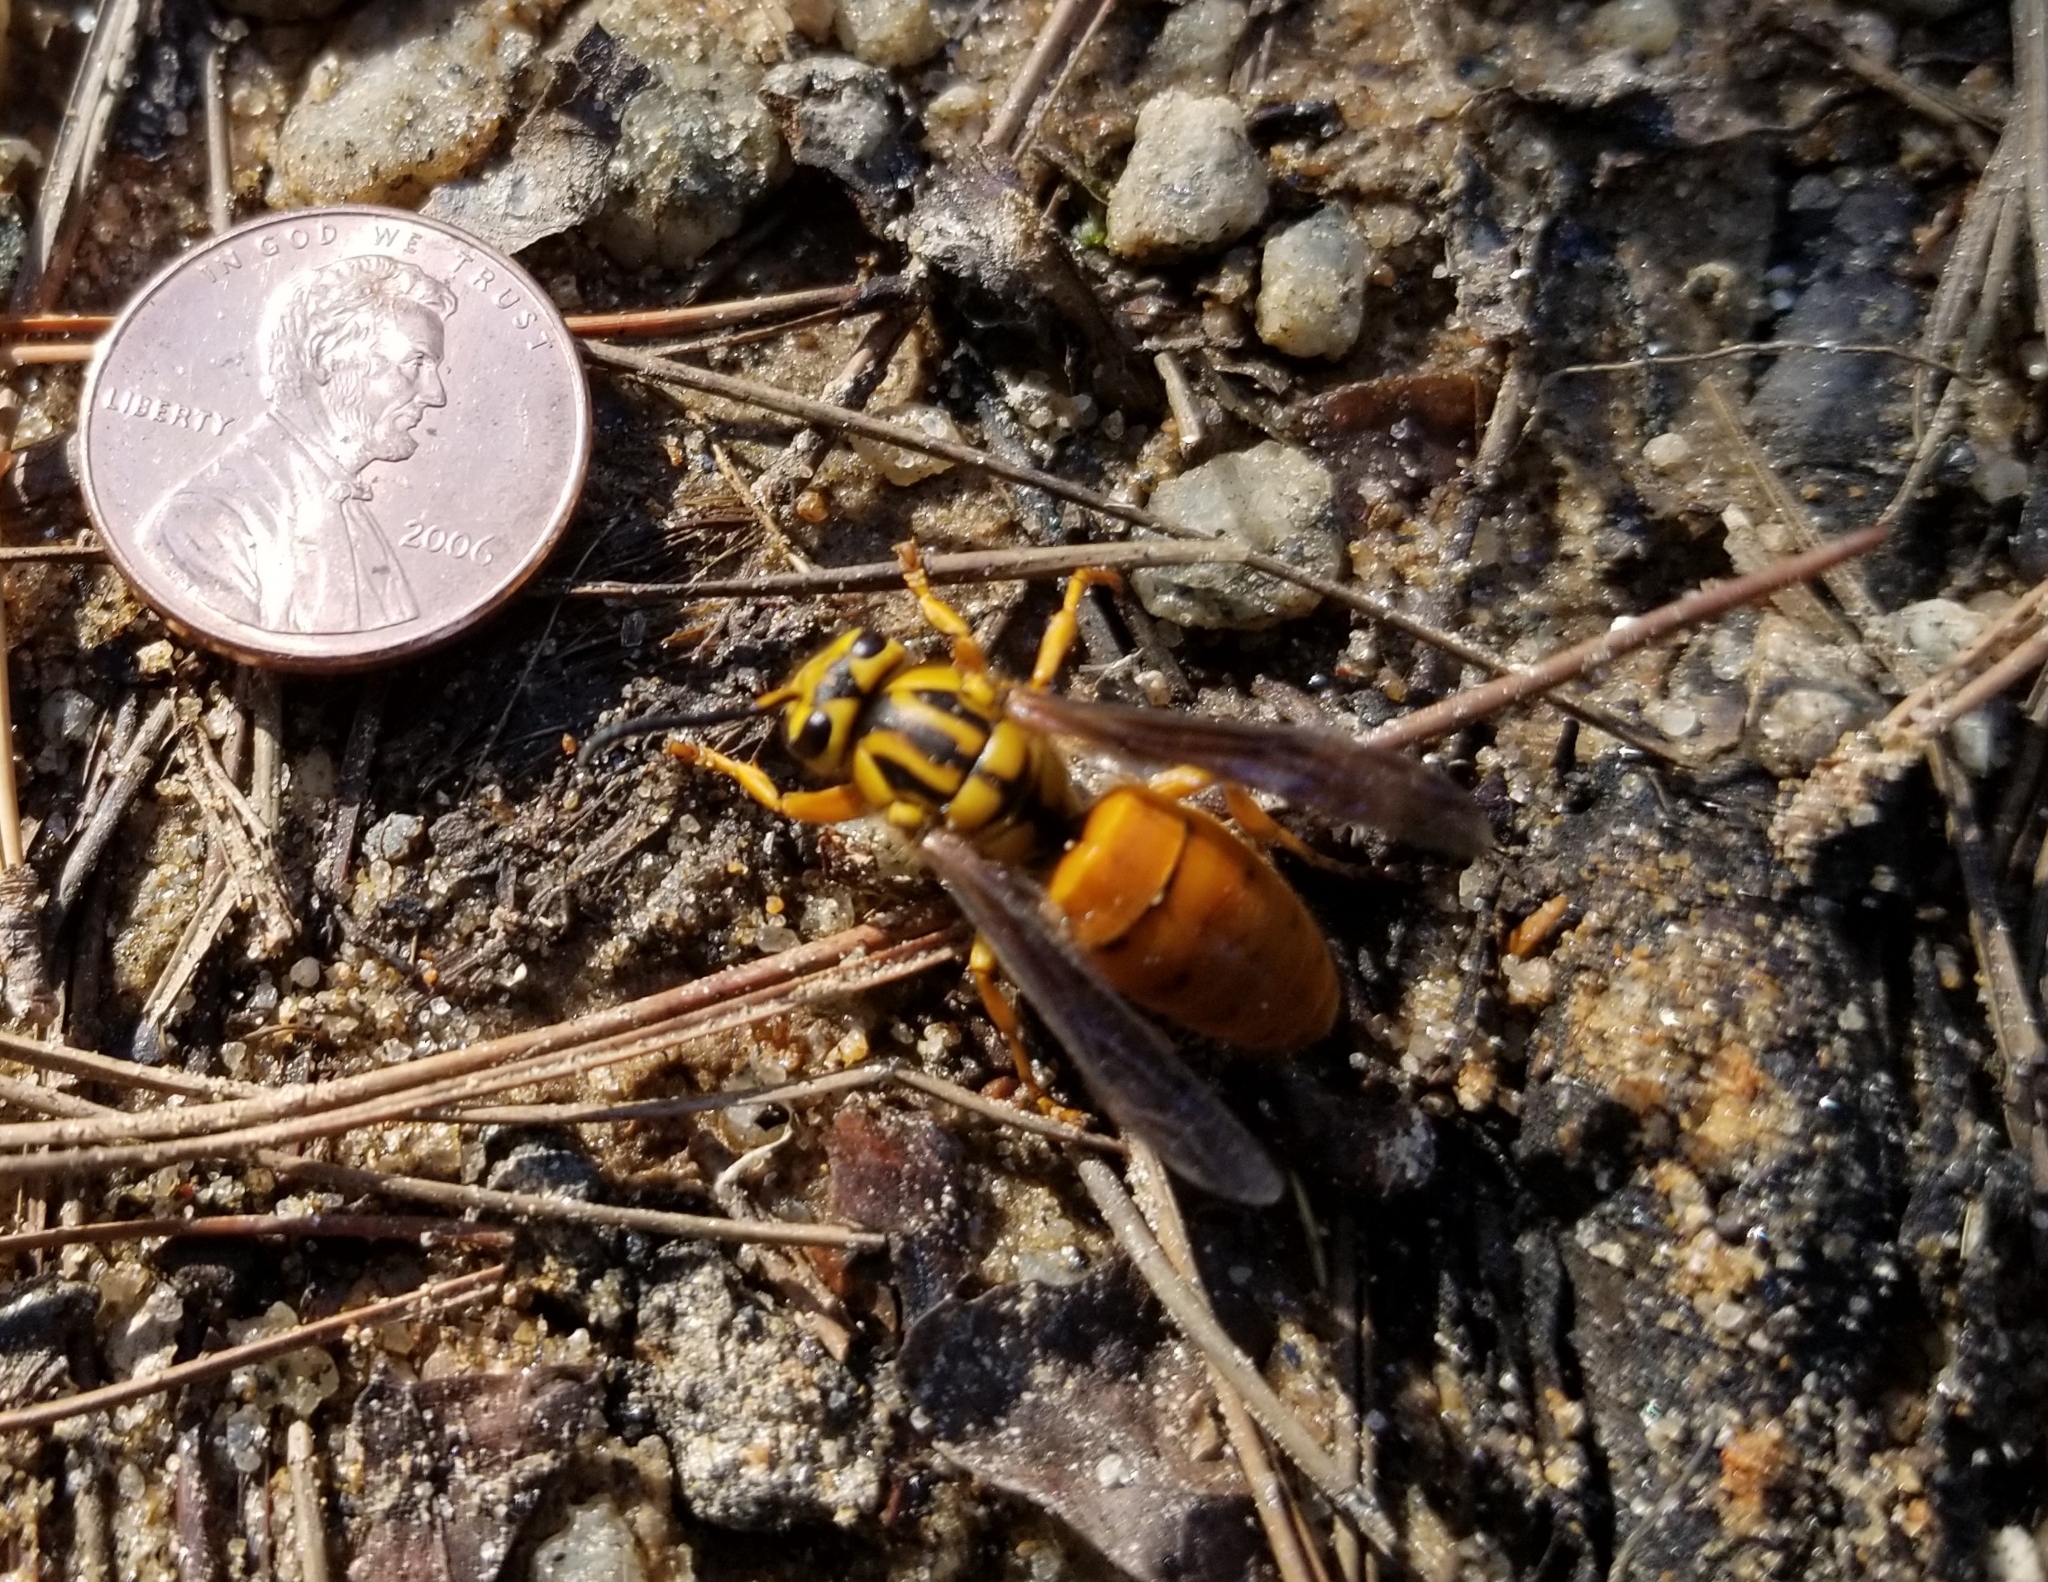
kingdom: Animalia
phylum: Arthropoda
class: Insecta
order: Hymenoptera
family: Vespidae
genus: Vespula
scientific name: Vespula squamosa
